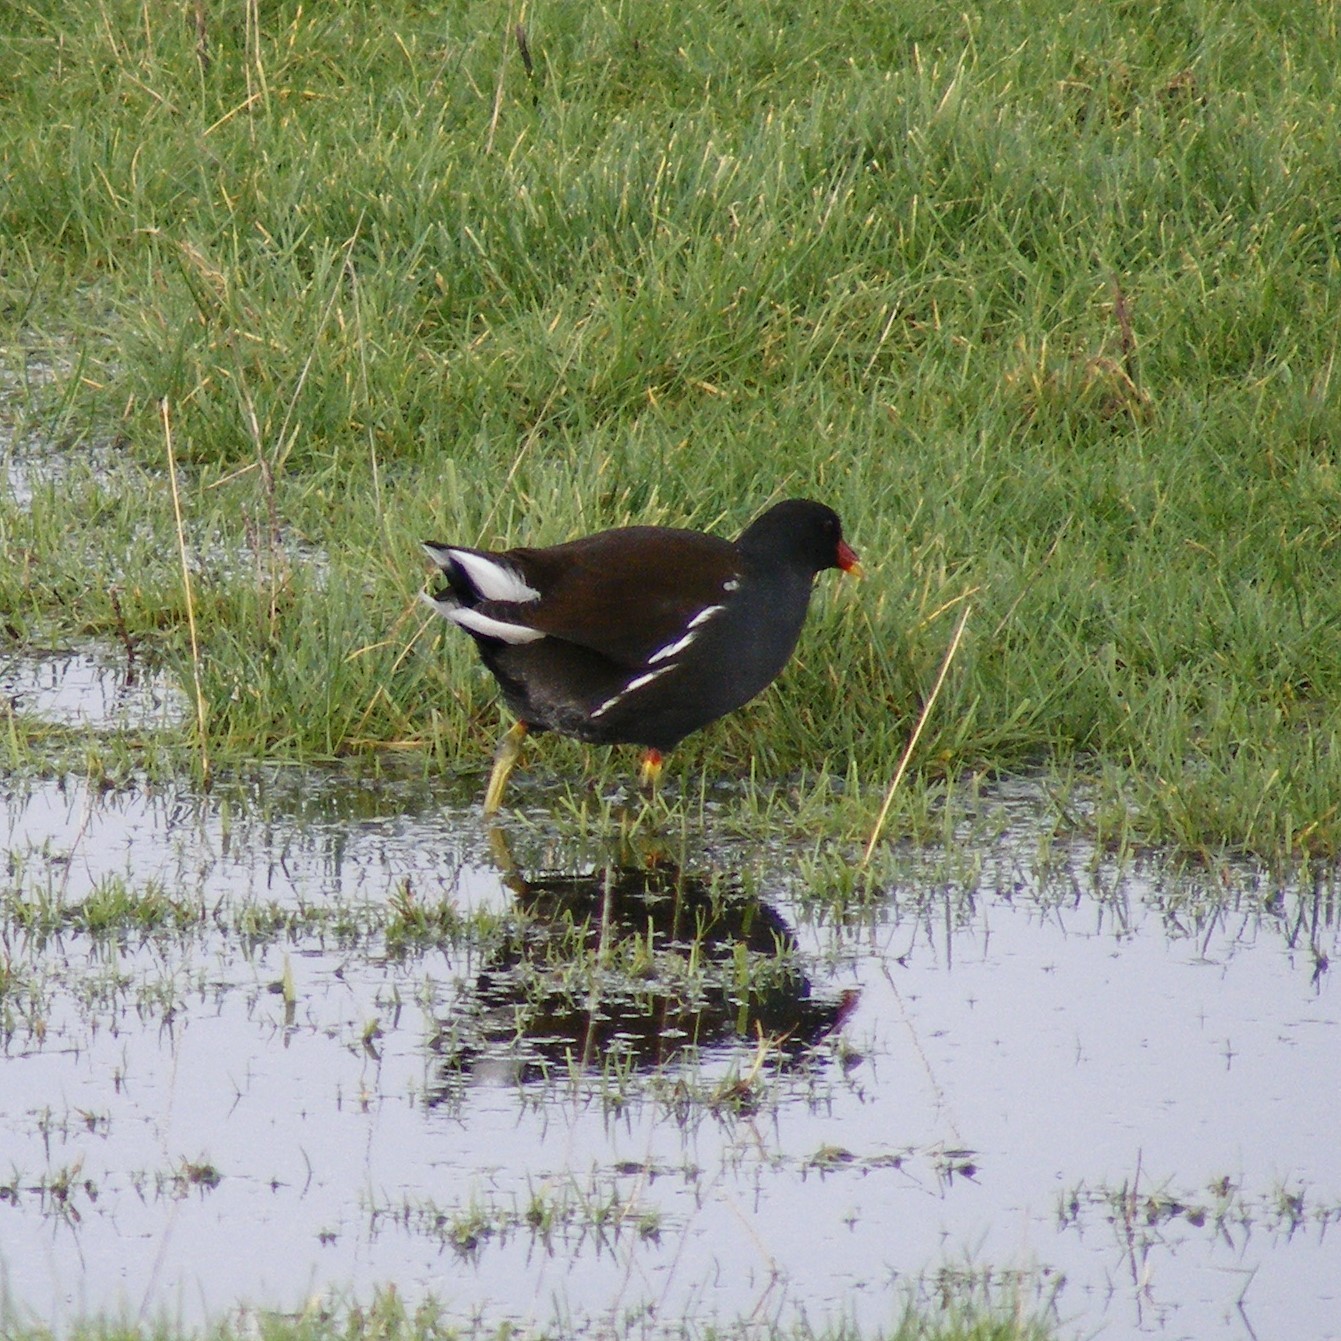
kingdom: Animalia
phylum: Chordata
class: Aves
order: Gruiformes
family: Rallidae
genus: Gallinula
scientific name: Gallinula chloropus
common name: Common moorhen
